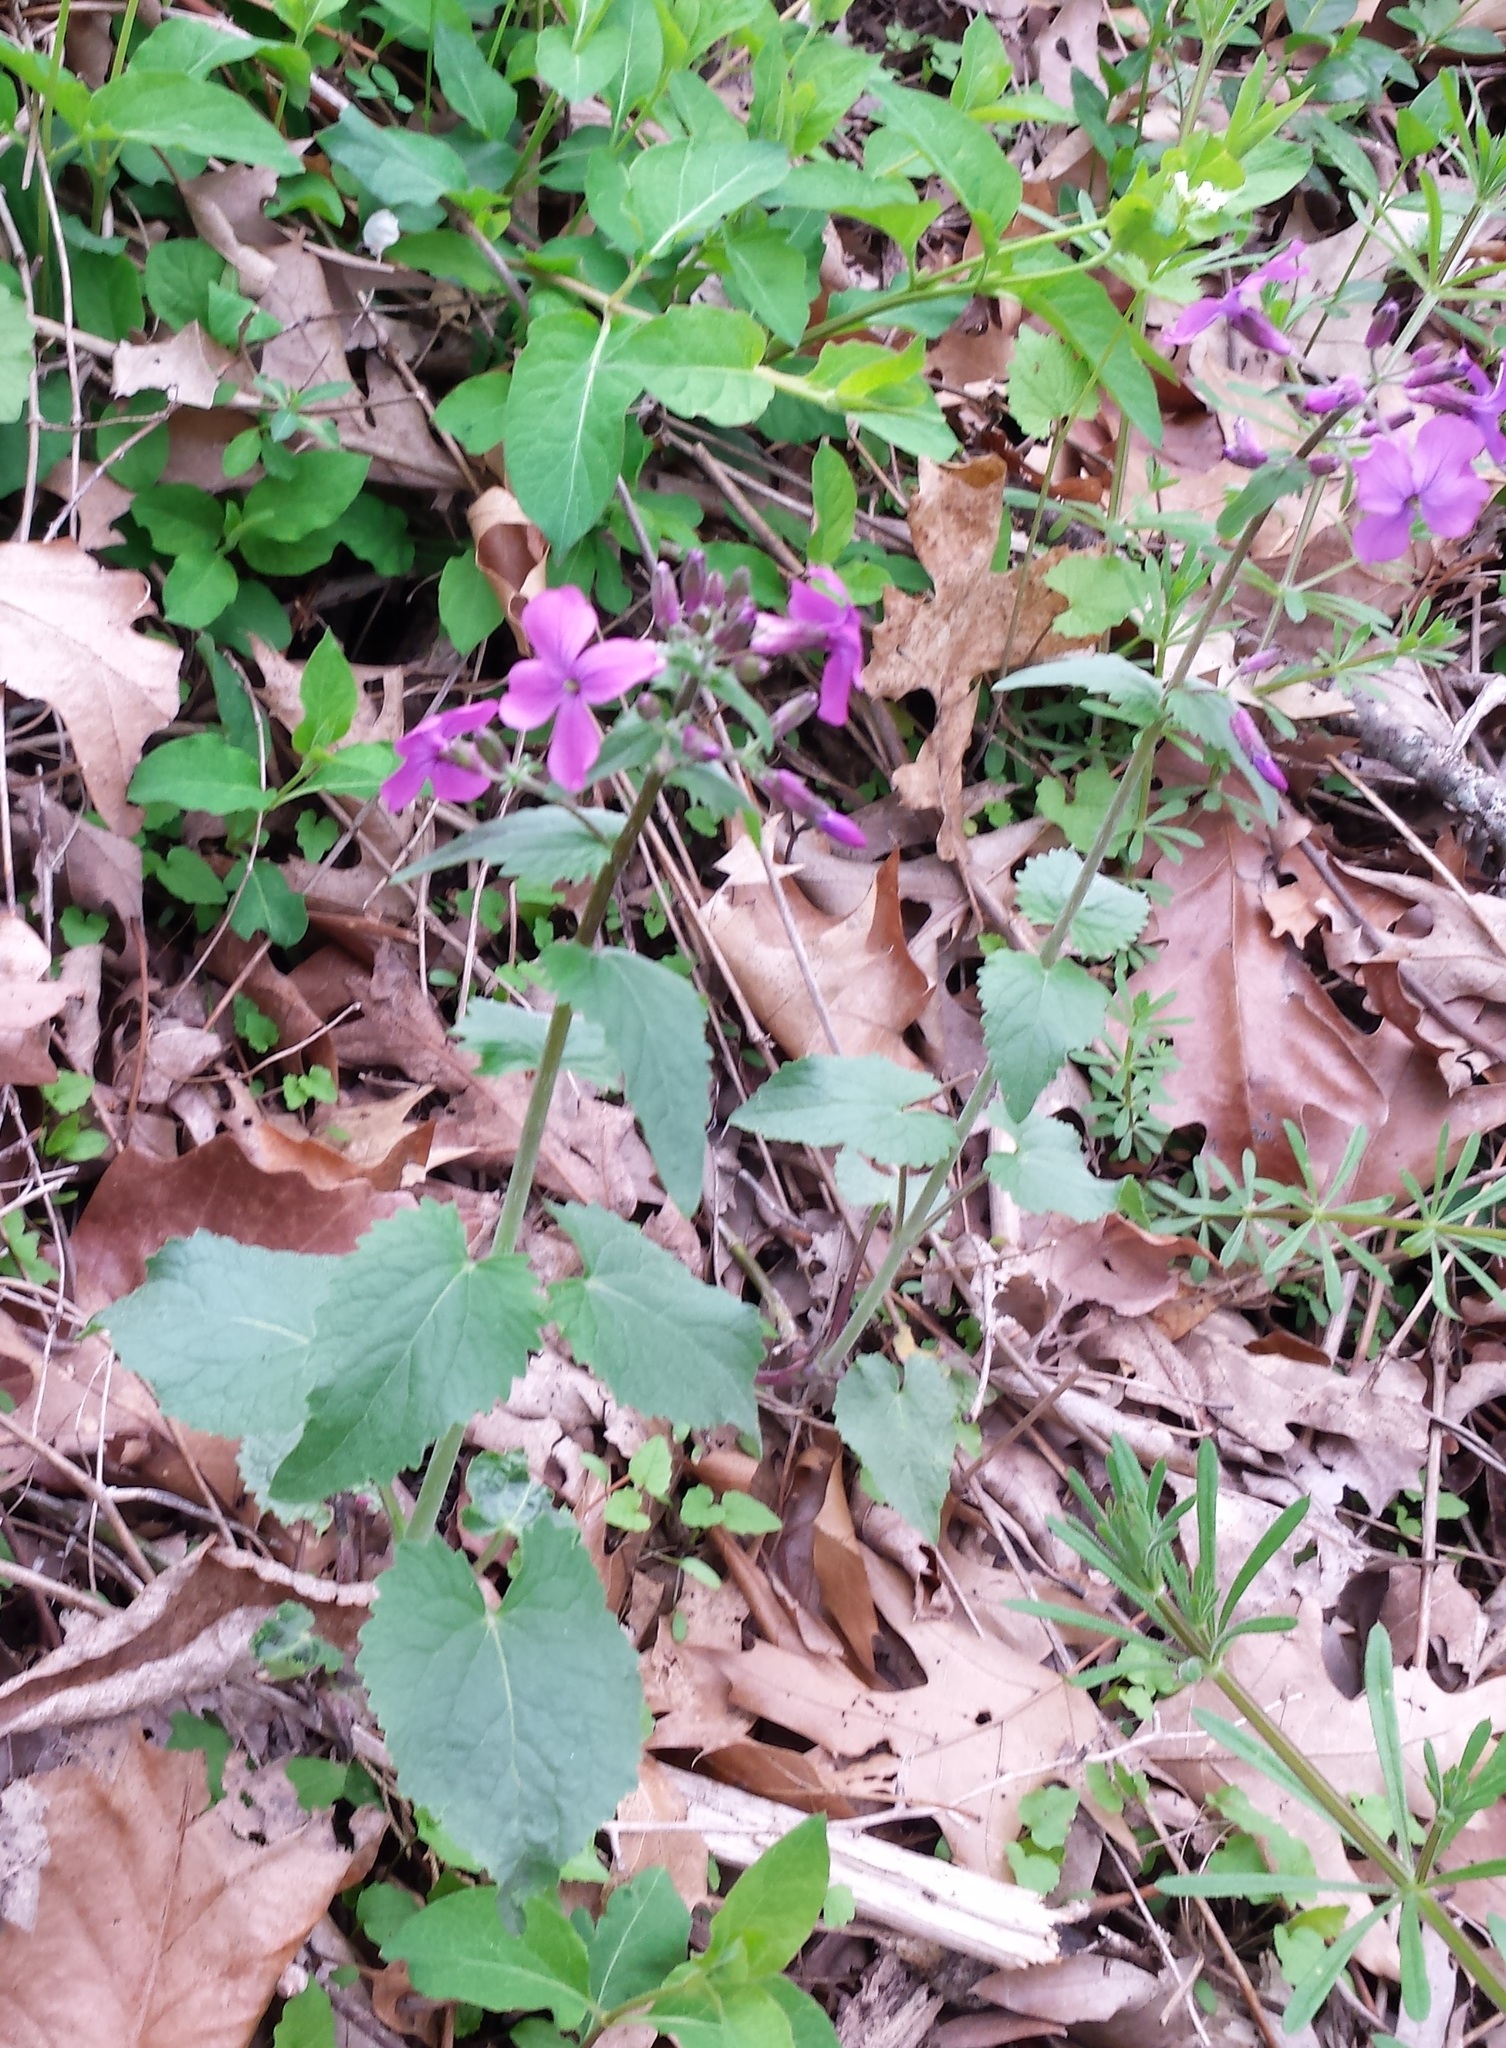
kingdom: Plantae
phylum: Tracheophyta
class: Magnoliopsida
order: Brassicales
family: Brassicaceae
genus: Hesperis
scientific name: Hesperis matronalis
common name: Dame's-violet
